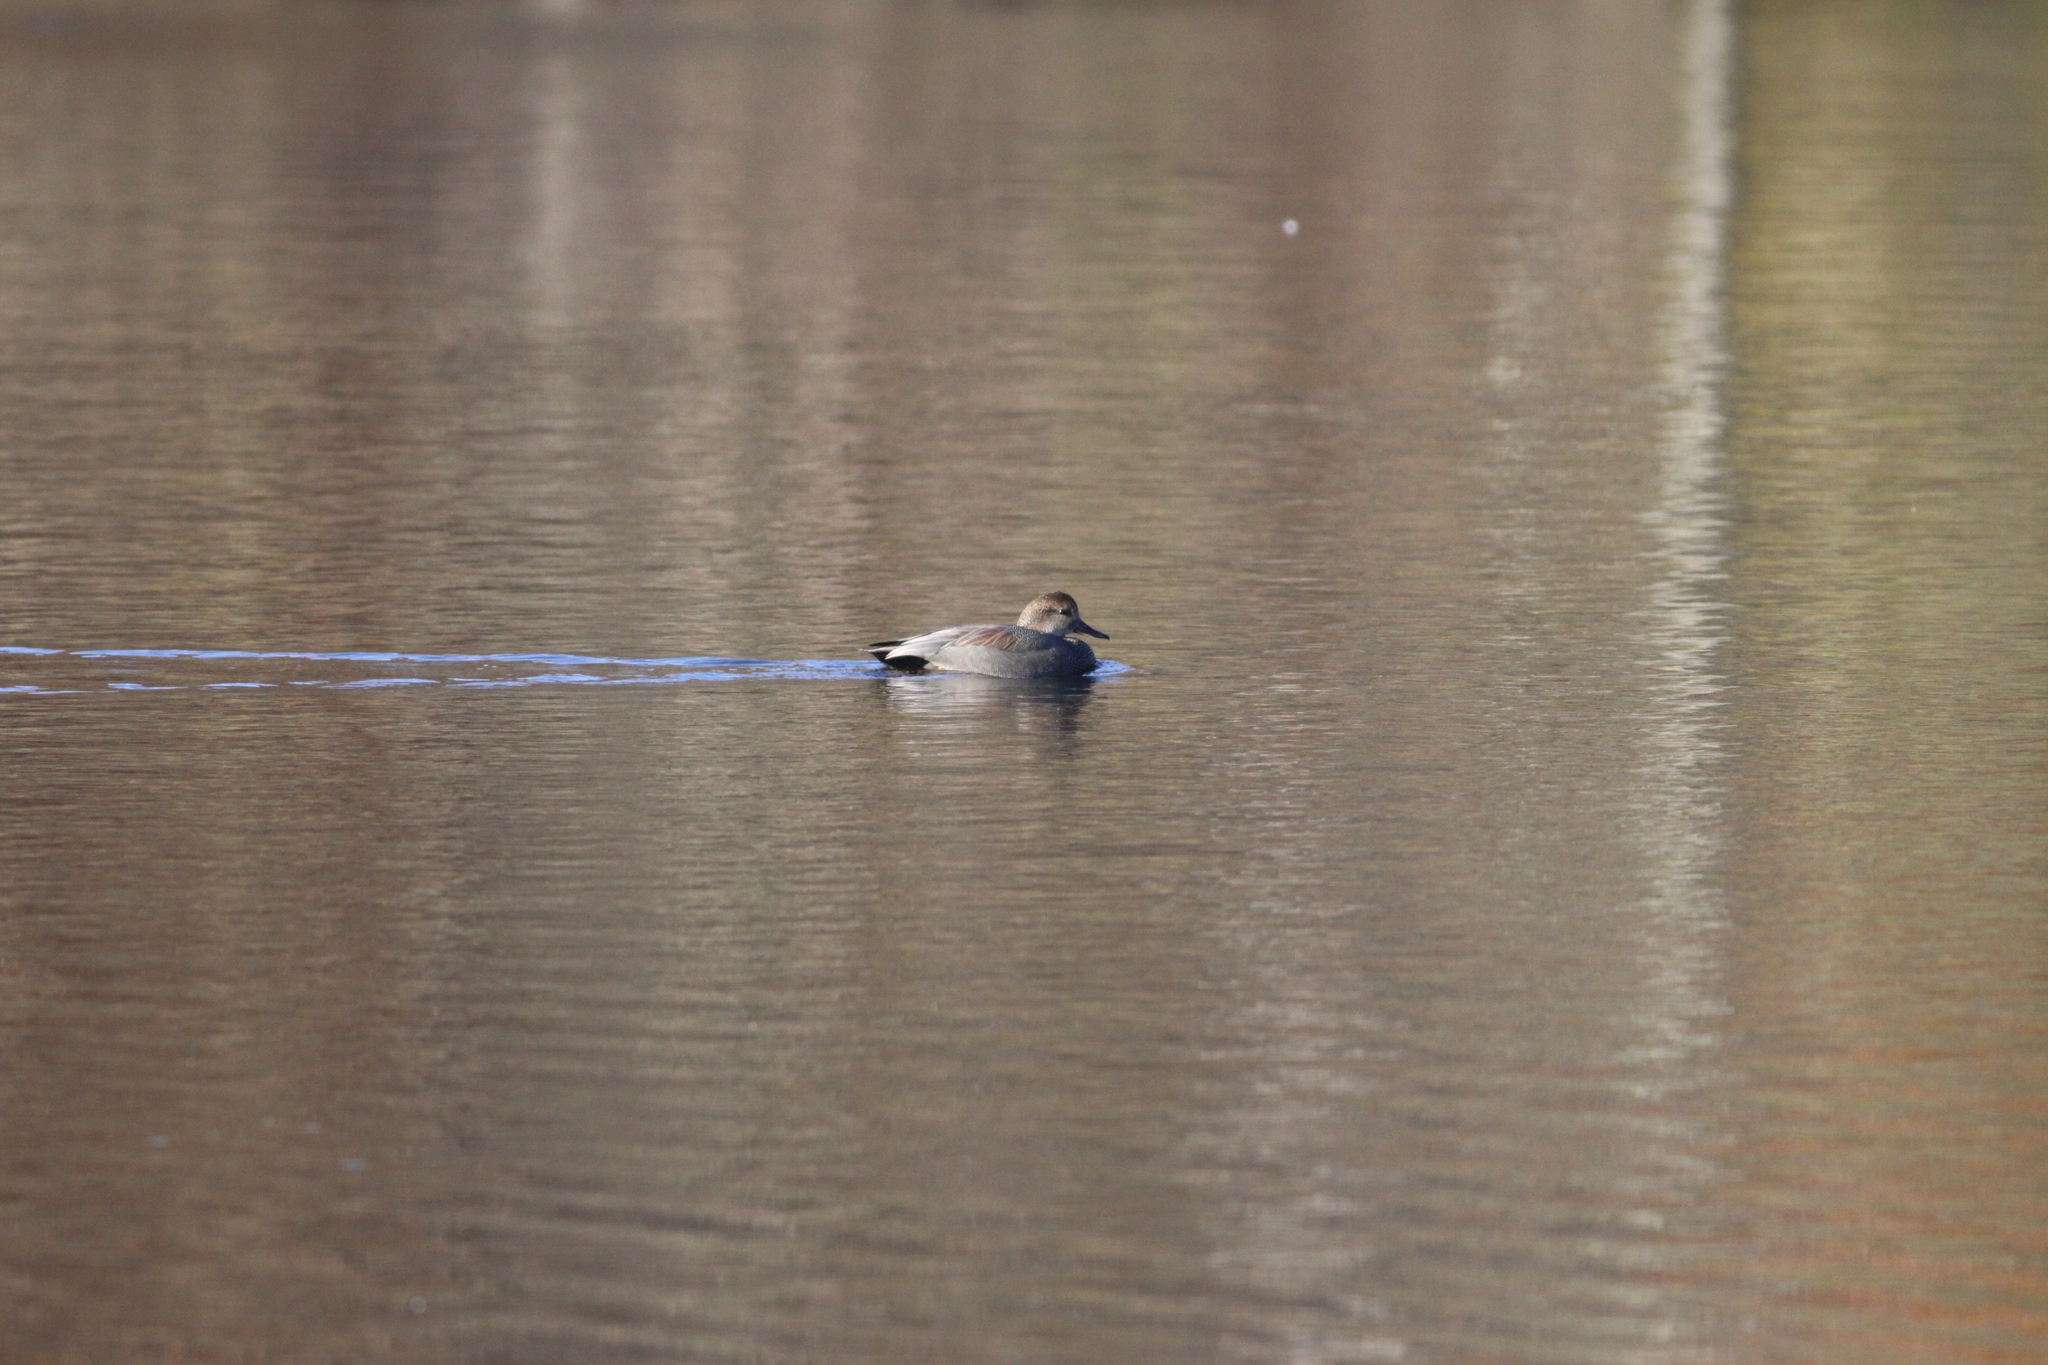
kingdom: Animalia
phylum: Chordata
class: Aves
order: Anseriformes
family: Anatidae
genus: Mareca
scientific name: Mareca strepera
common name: Gadwall
